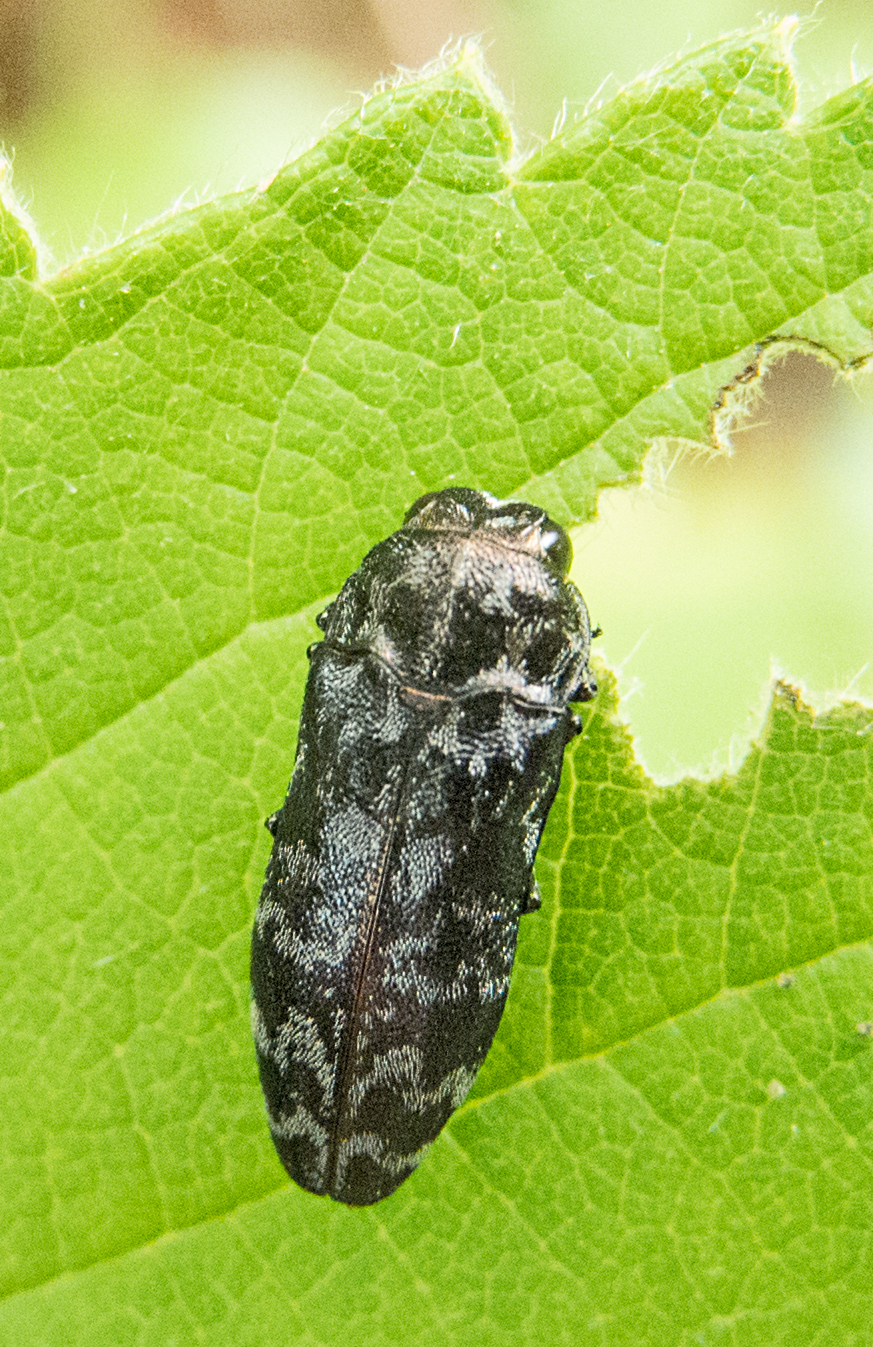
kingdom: Animalia
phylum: Arthropoda
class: Insecta
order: Coleoptera
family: Buprestidae
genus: Coraebus
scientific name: Coraebus rubi
